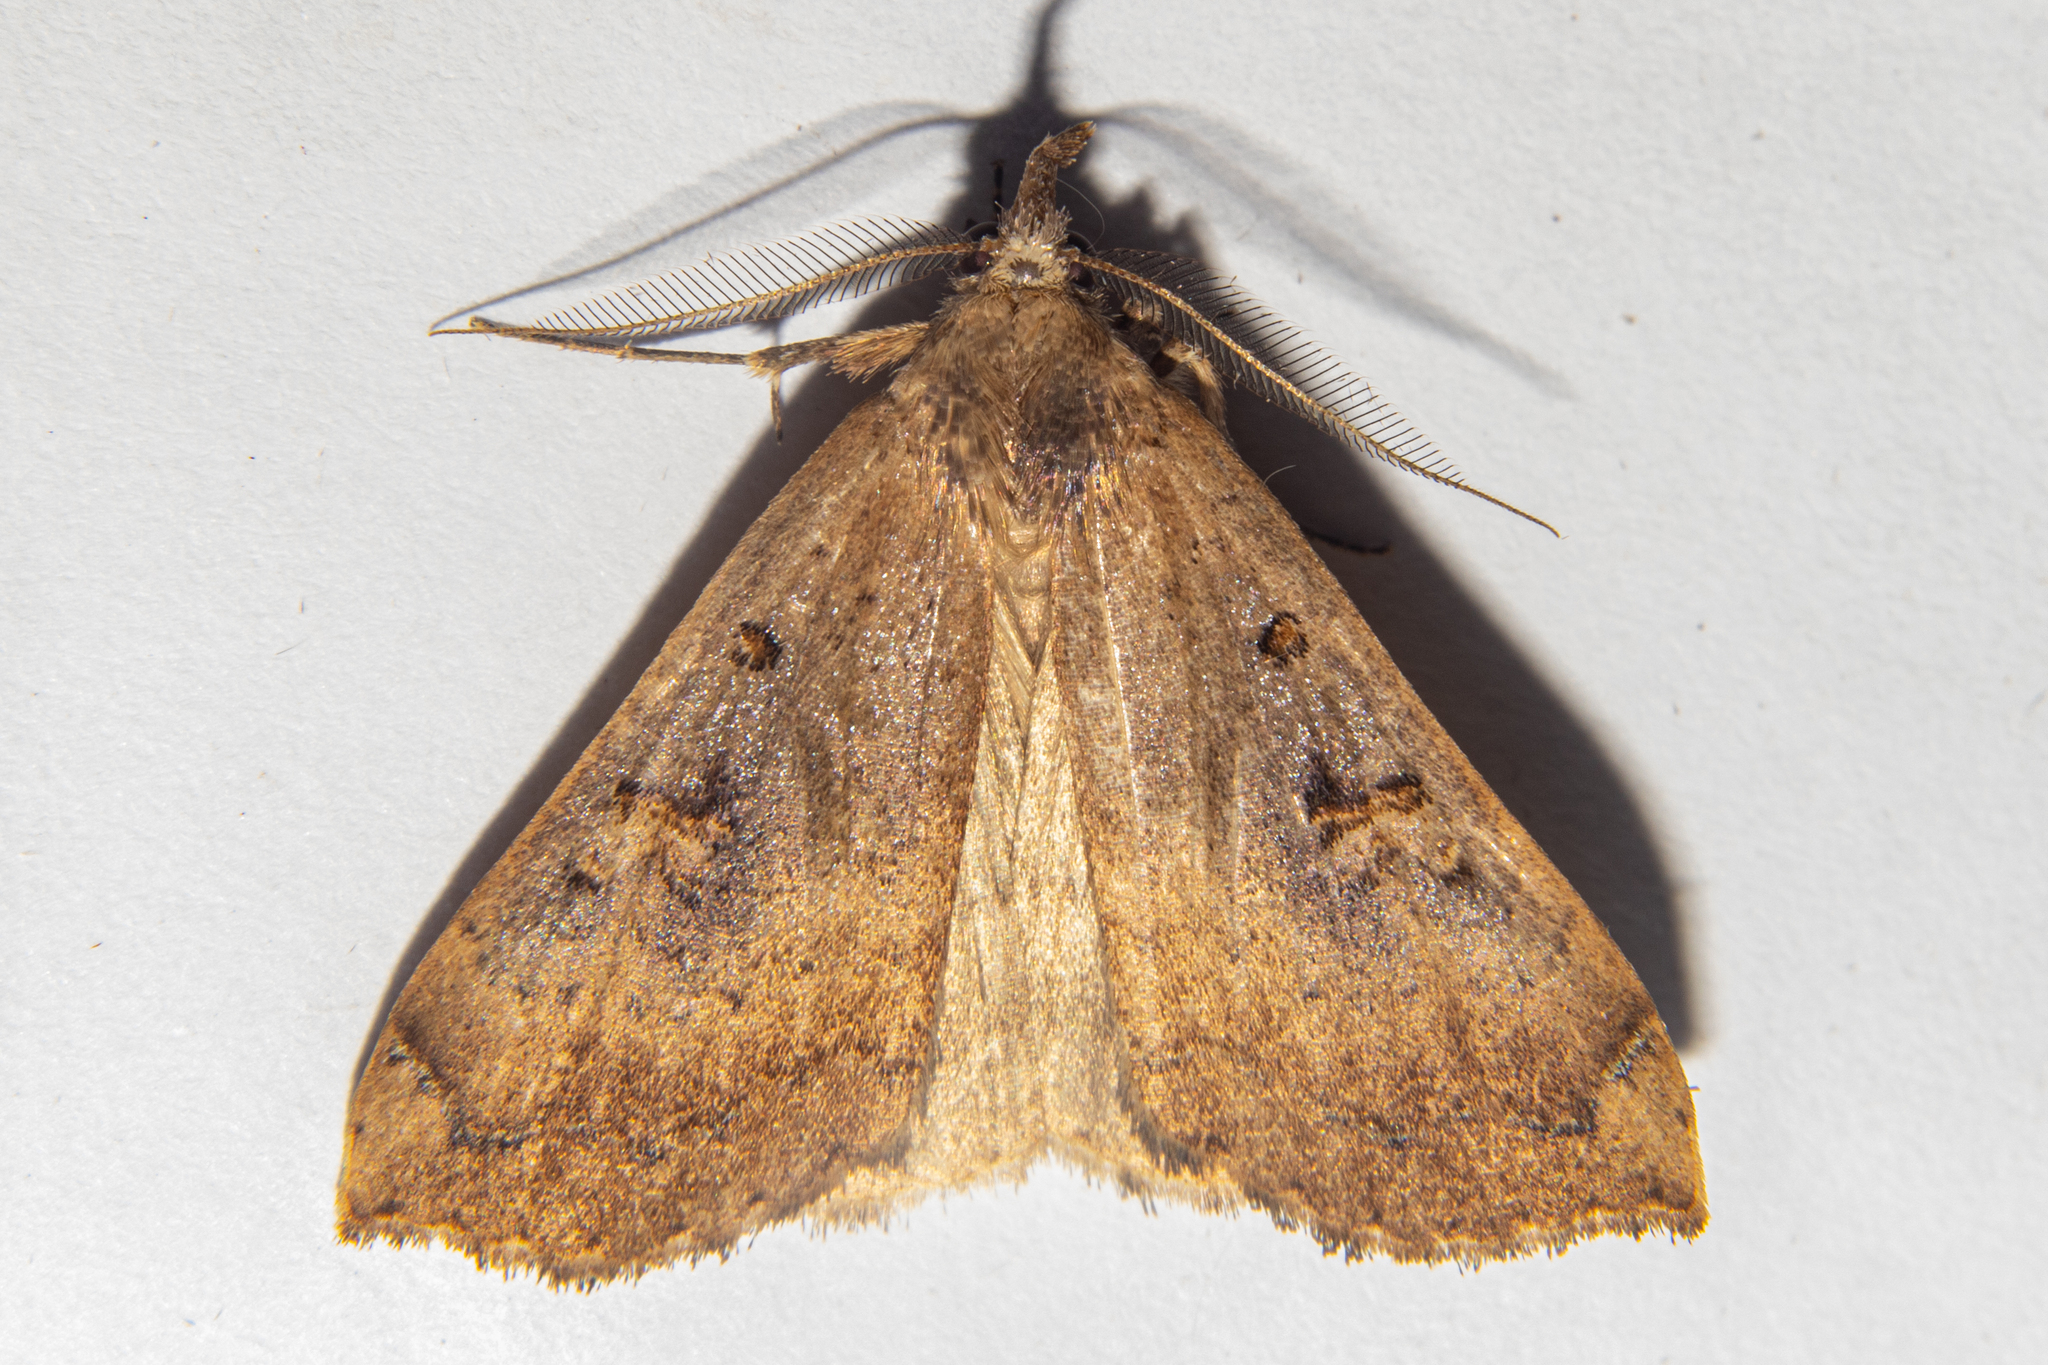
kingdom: Animalia
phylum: Arthropoda
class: Insecta
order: Lepidoptera
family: Erebidae
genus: Rhapsa
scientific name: Rhapsa scotosialis
